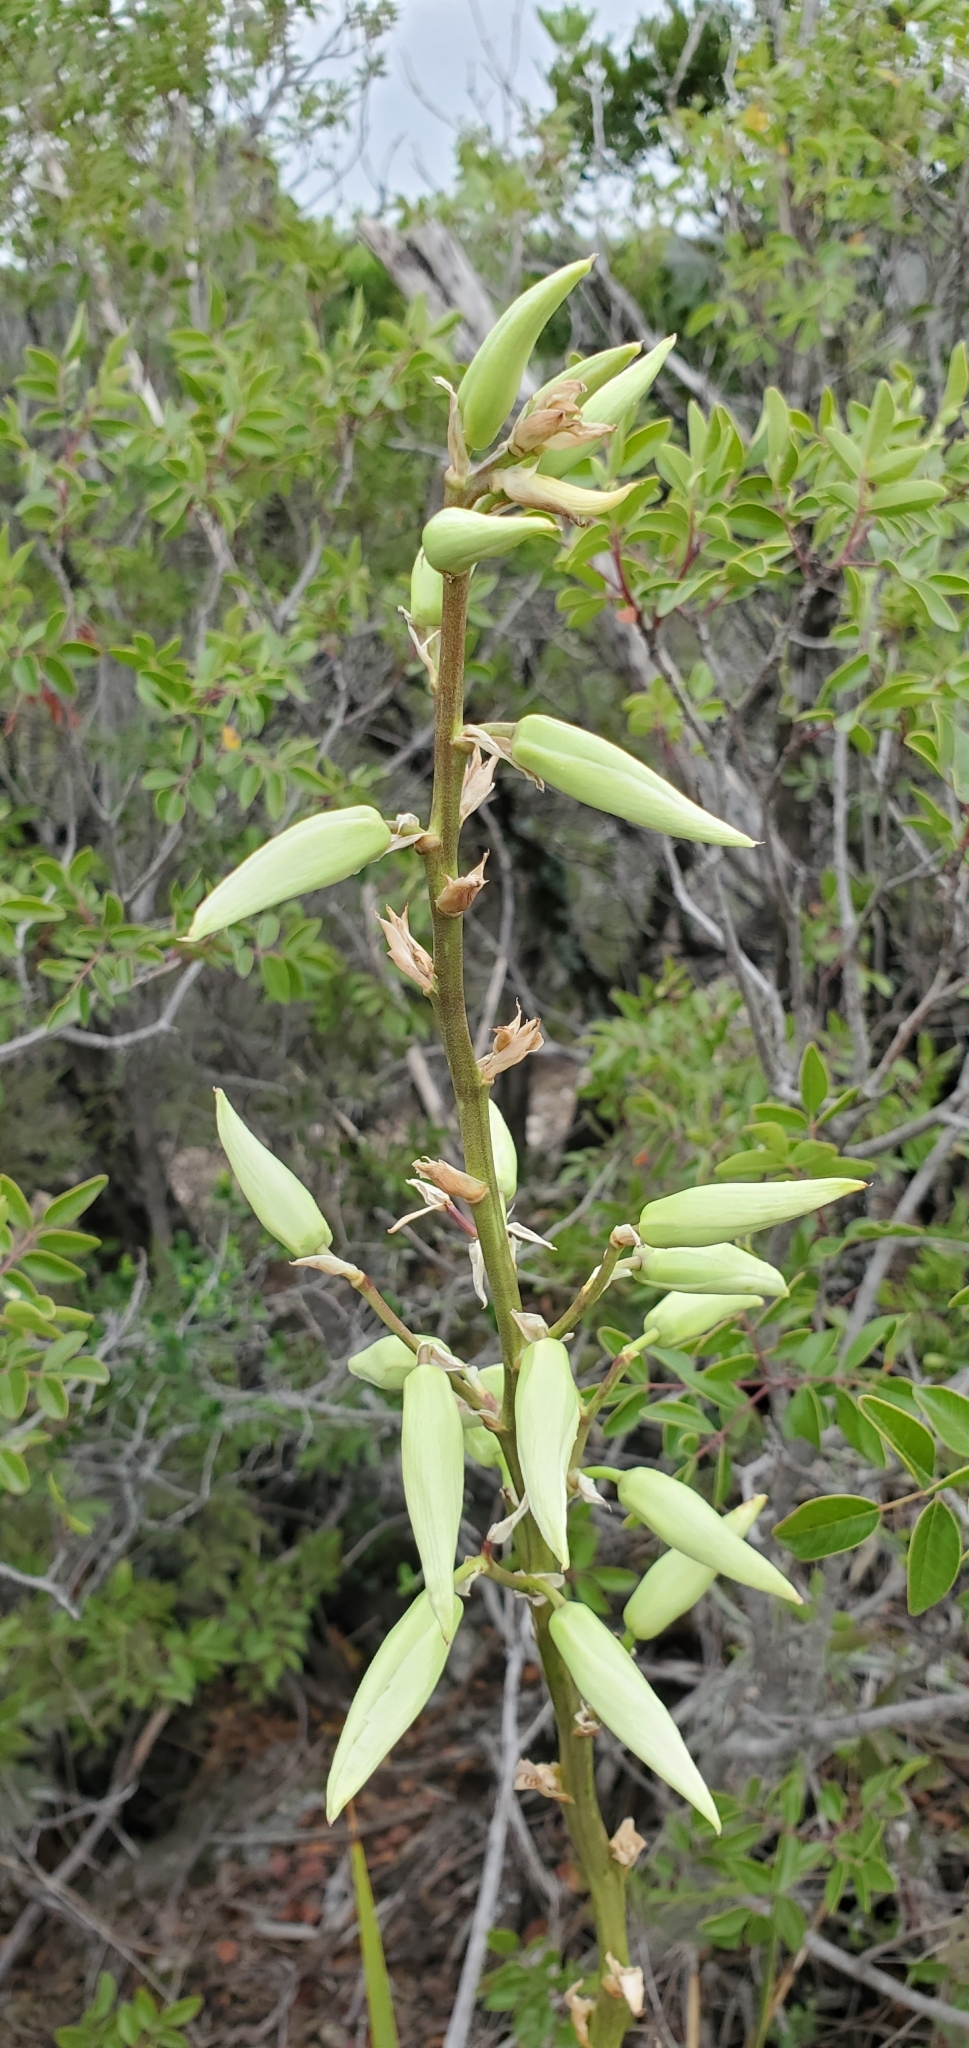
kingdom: Plantae
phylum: Tracheophyta
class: Liliopsida
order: Asparagales
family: Asparagaceae
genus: Yucca
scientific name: Yucca reverchonii
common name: San angelo yucca
